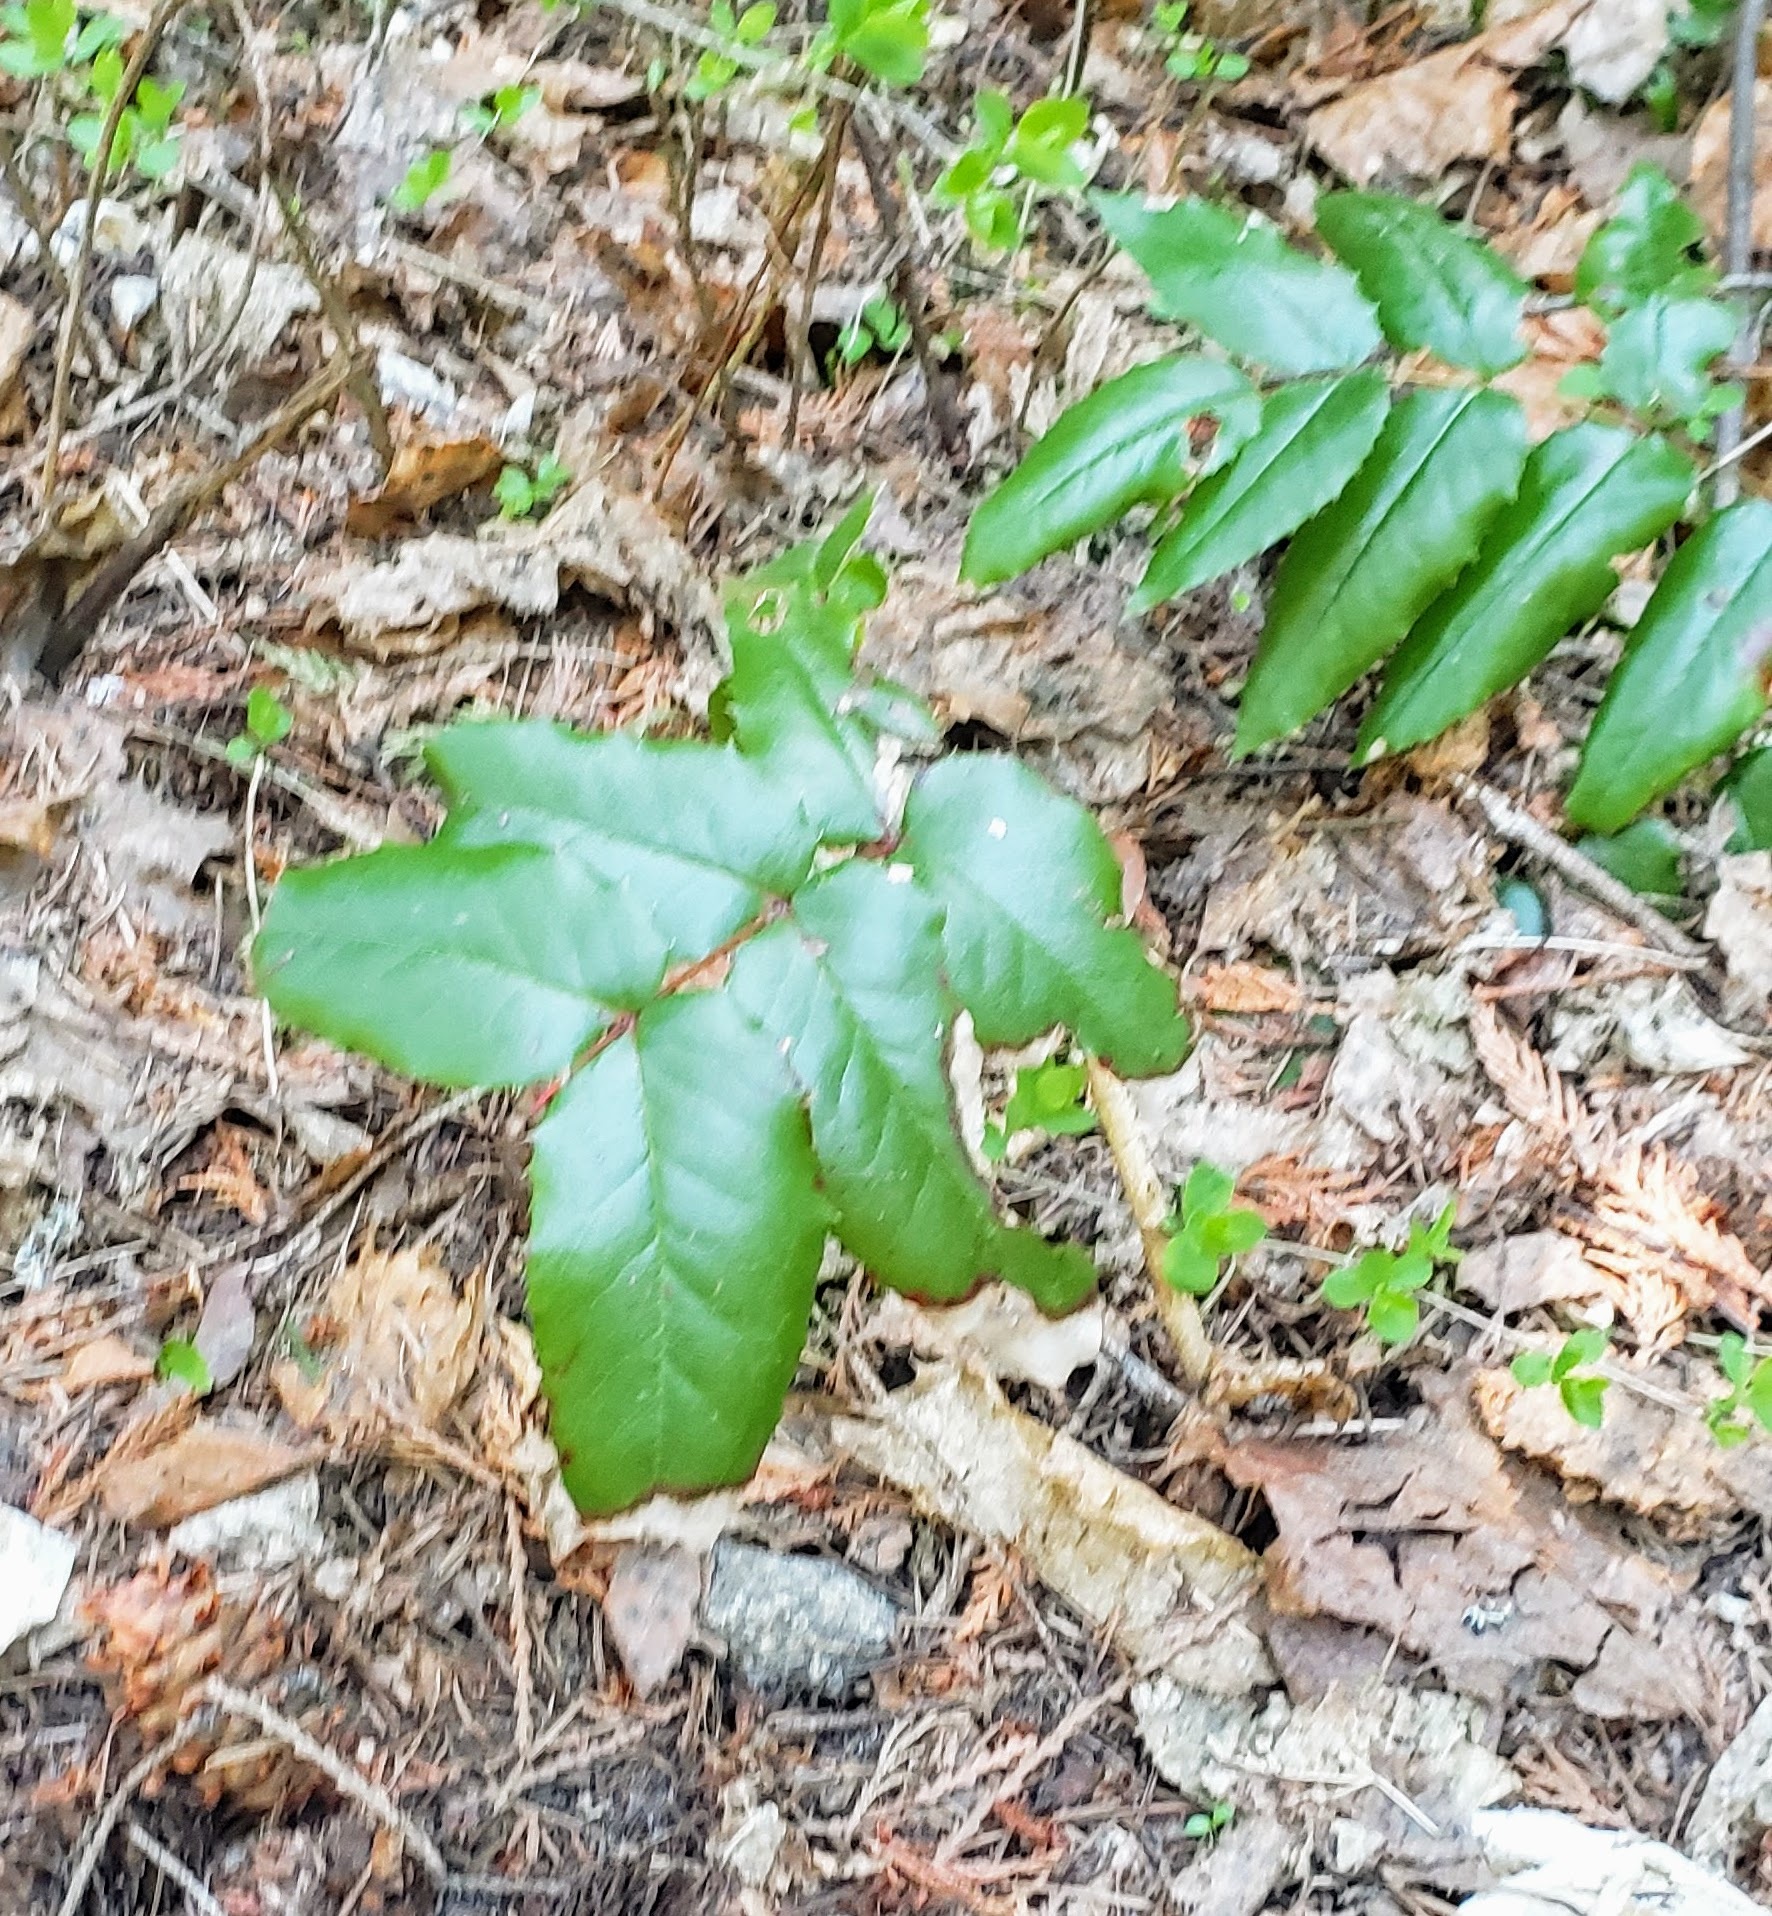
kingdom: Plantae
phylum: Tracheophyta
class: Magnoliopsida
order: Ranunculales
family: Berberidaceae
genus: Mahonia
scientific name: Mahonia aquifolium
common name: Oregon-grape
